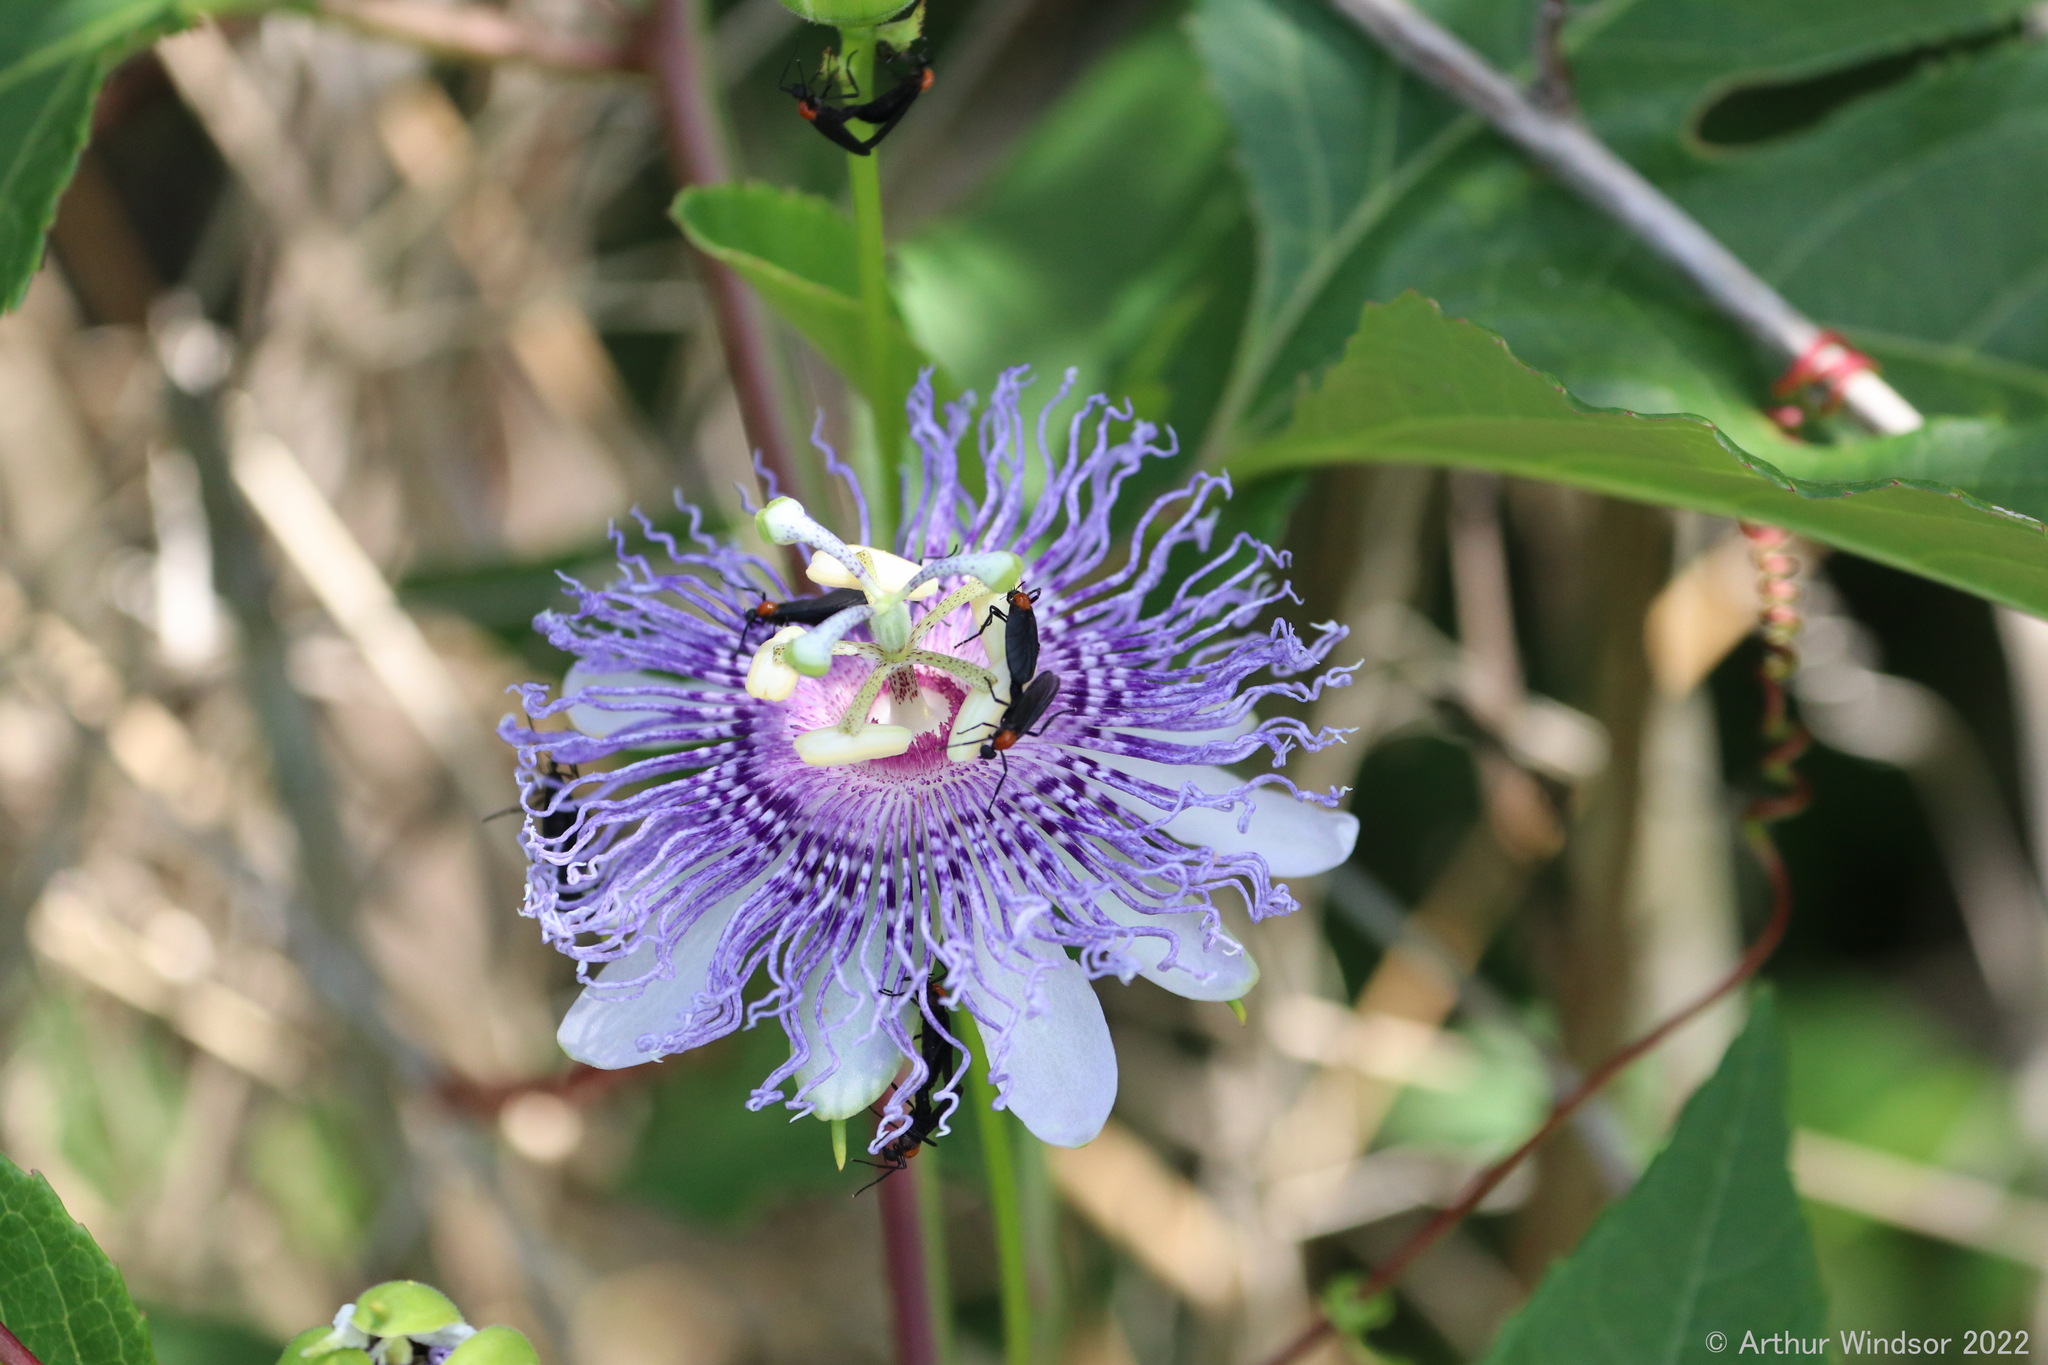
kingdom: Animalia
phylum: Arthropoda
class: Insecta
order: Diptera
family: Bibionidae
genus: Plecia
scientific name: Plecia nearctica
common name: March fly
